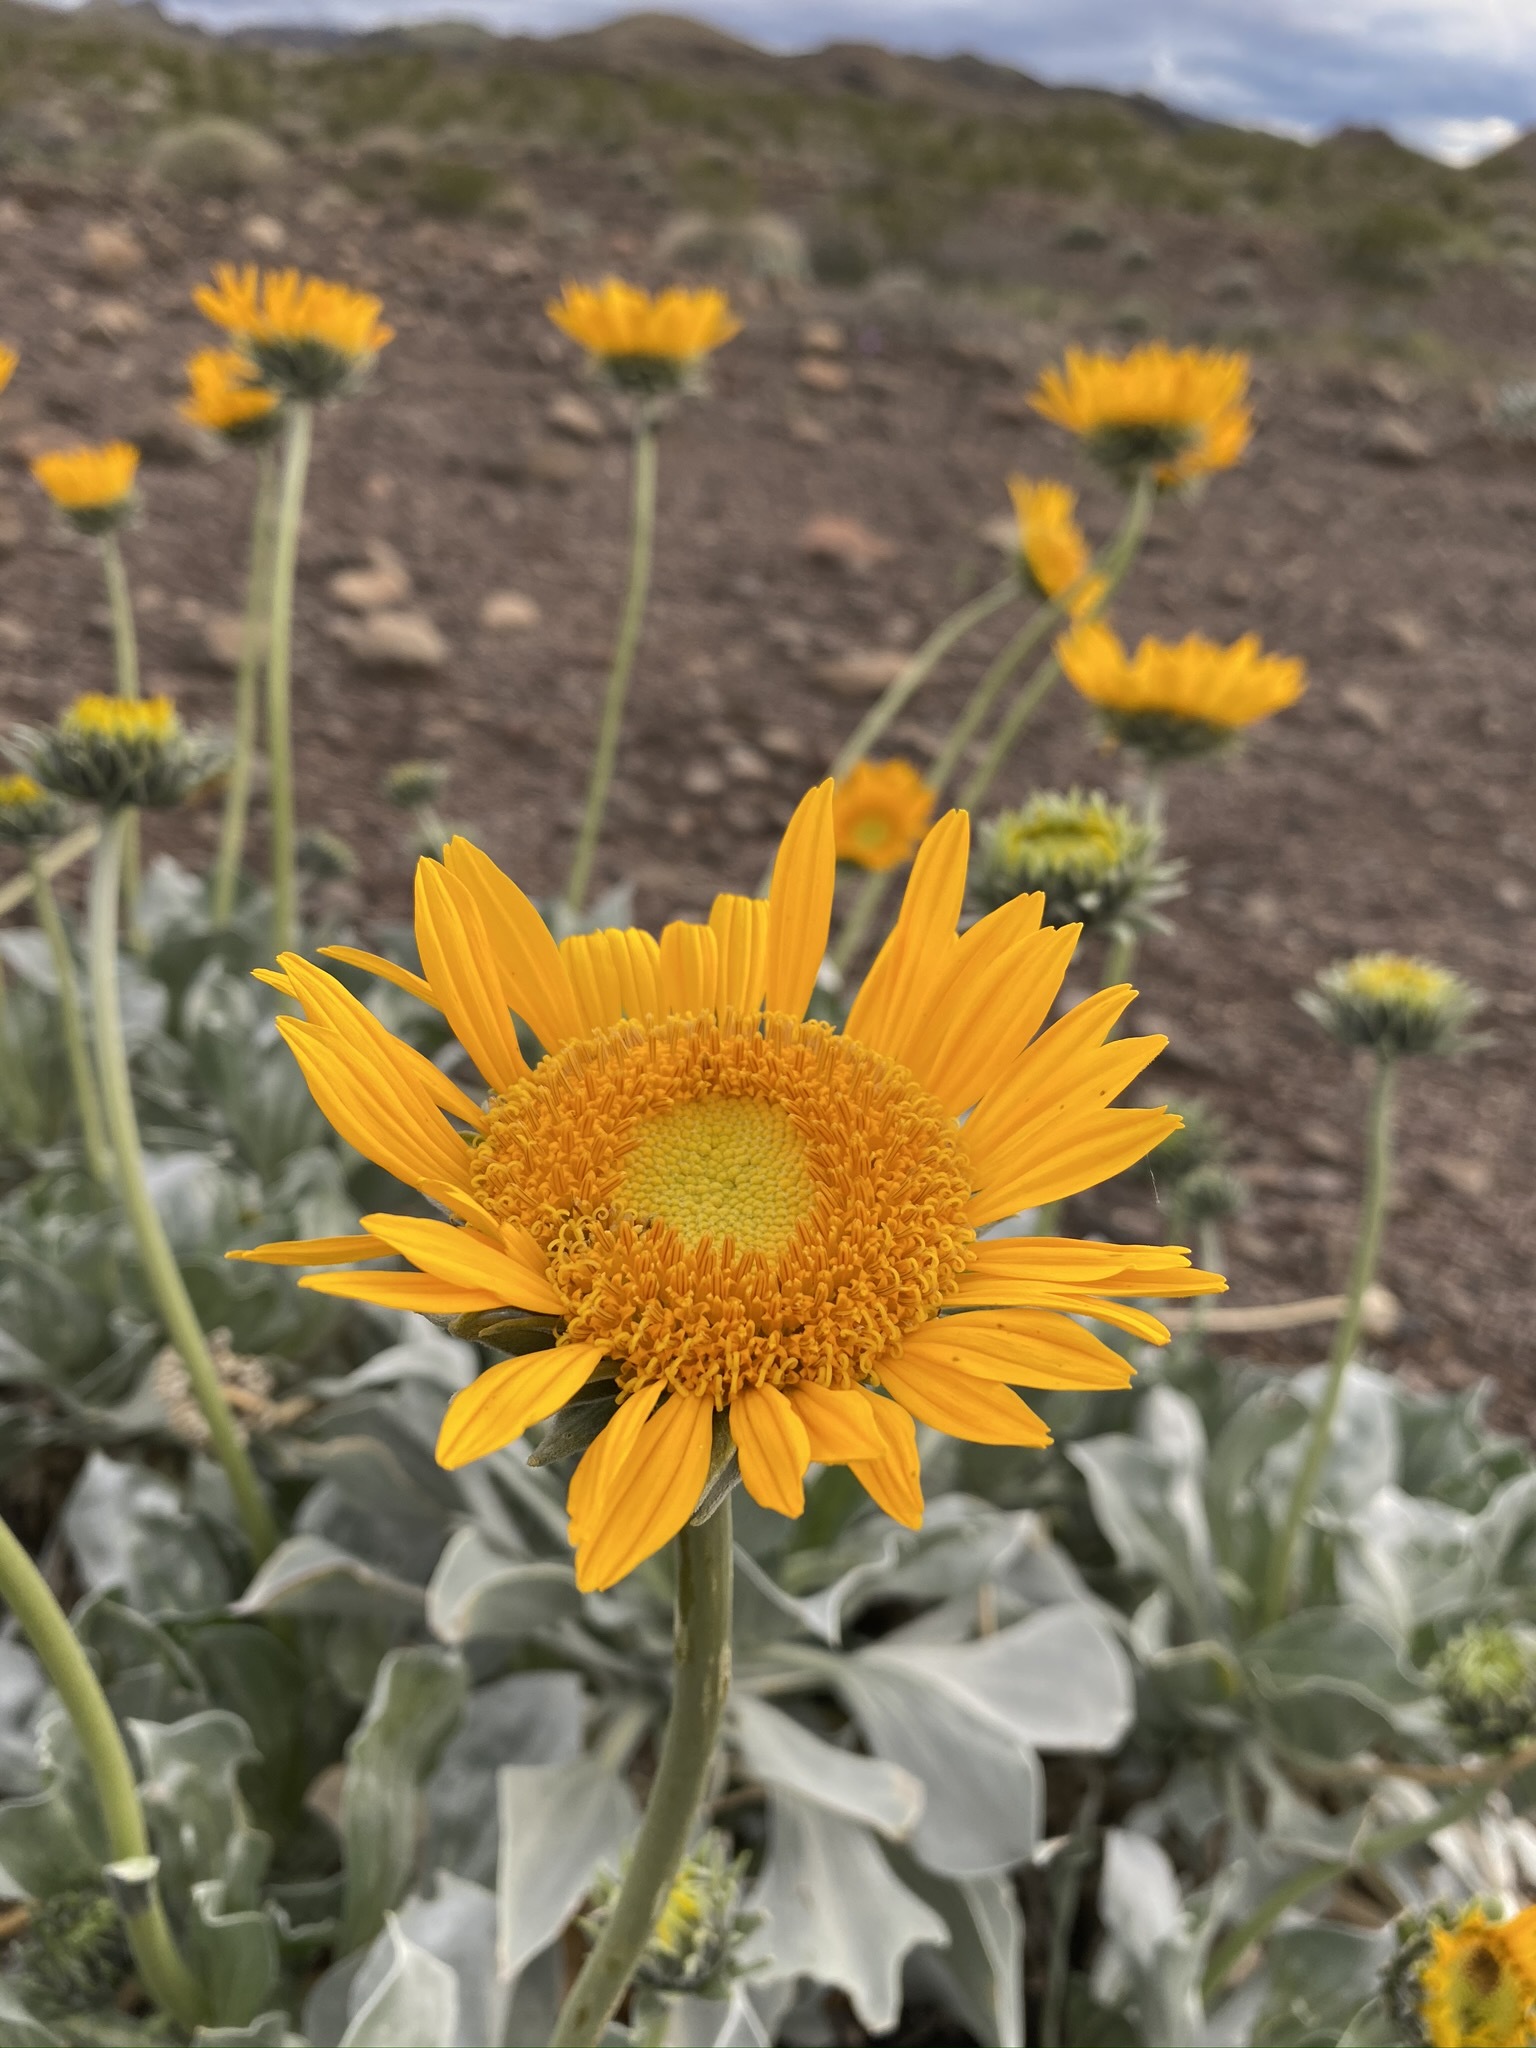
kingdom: Plantae
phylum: Tracheophyta
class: Magnoliopsida
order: Asterales
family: Asteraceae
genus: Enceliopsis
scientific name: Enceliopsis argophylla
